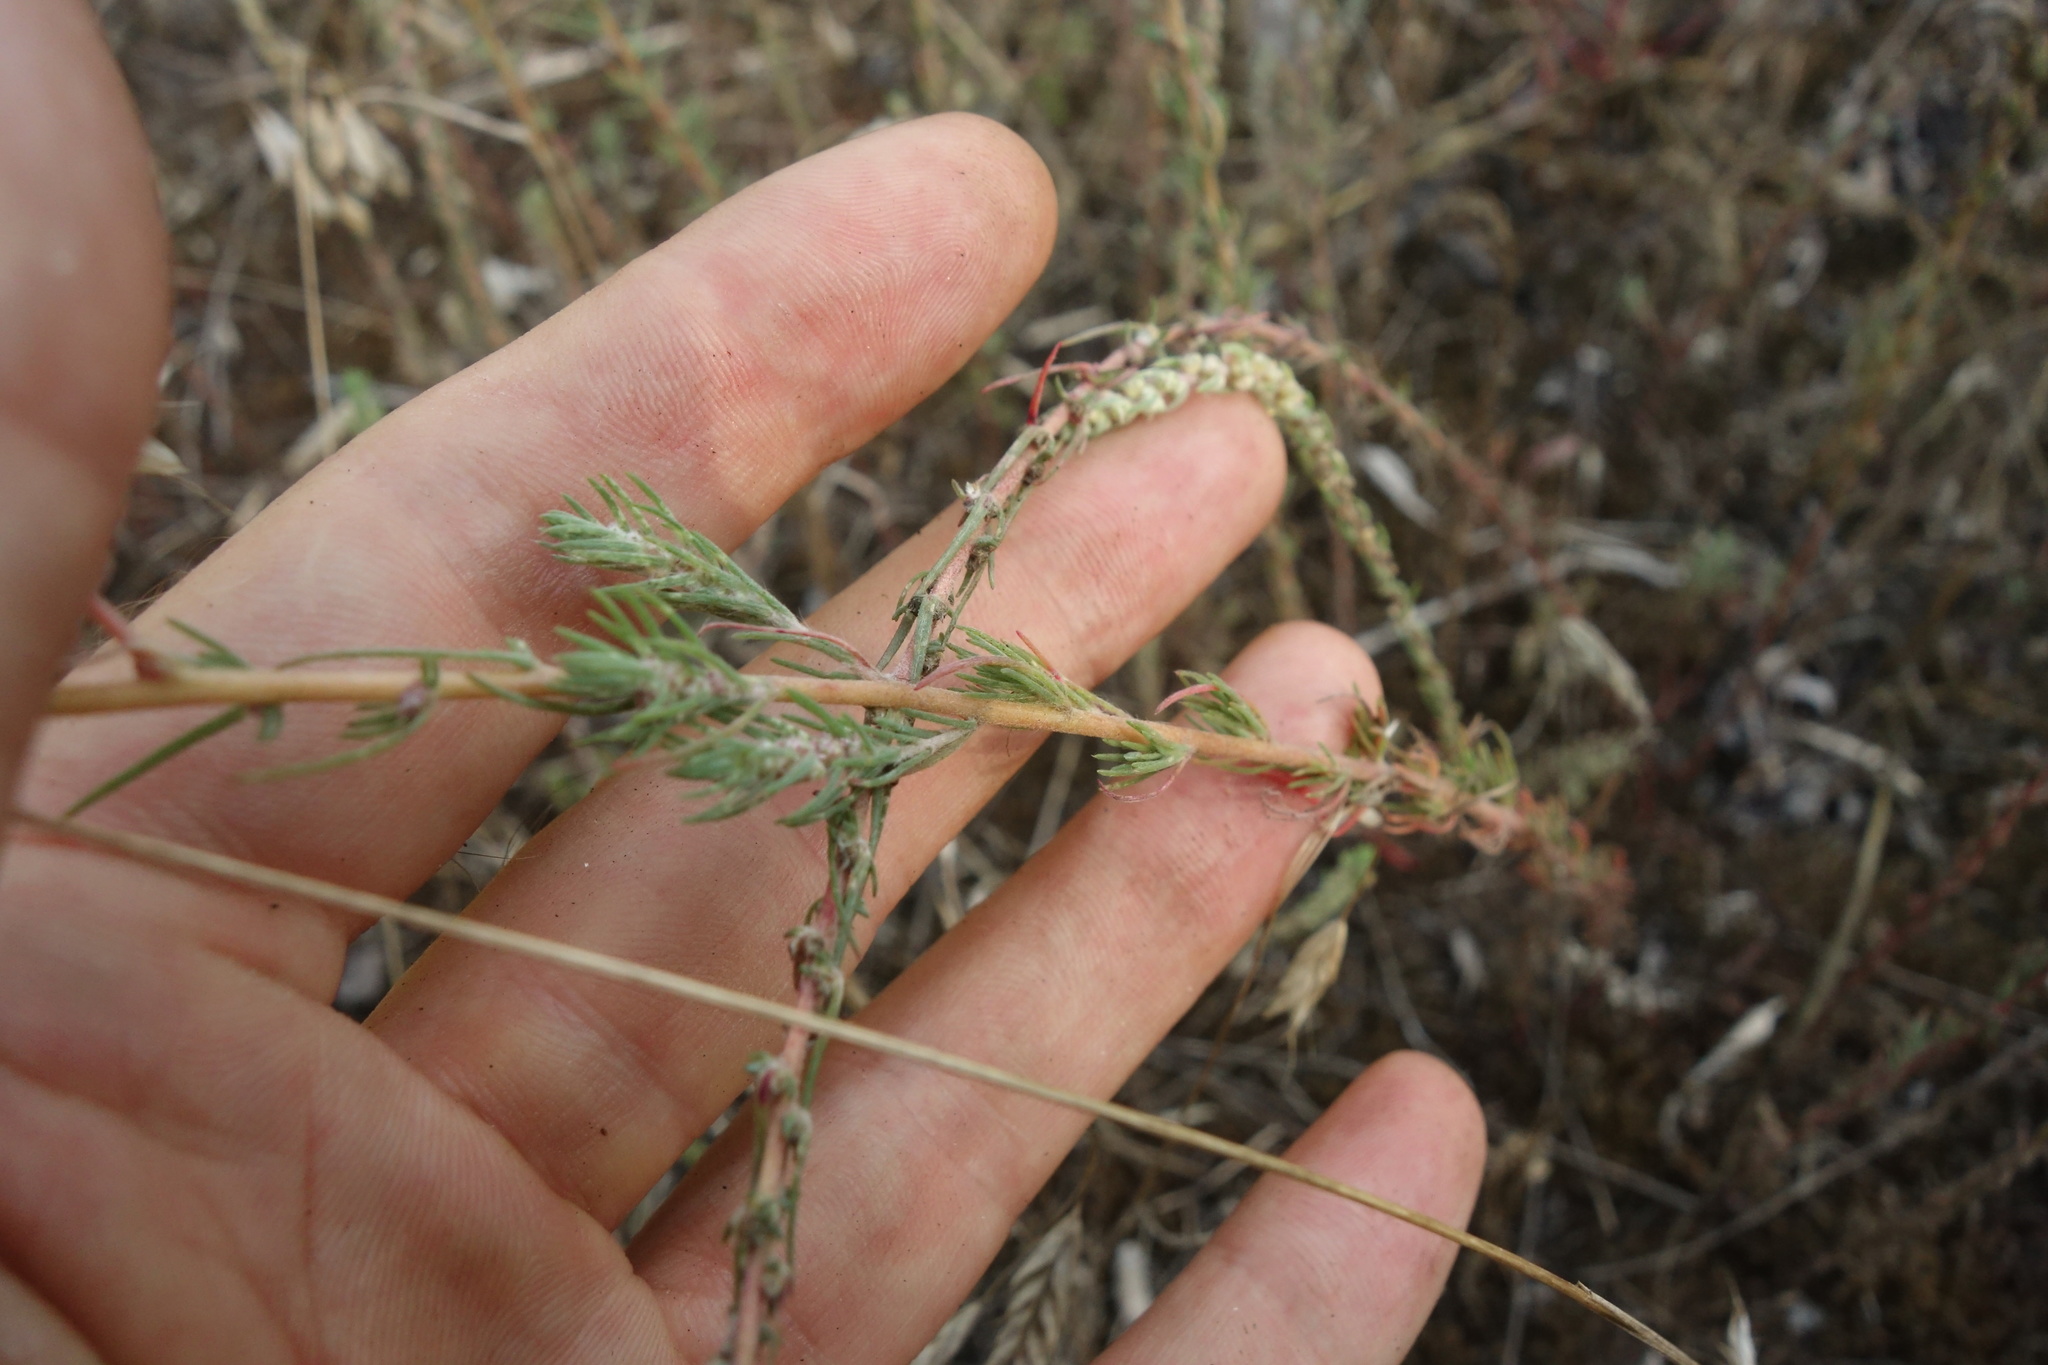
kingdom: Plantae
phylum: Tracheophyta
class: Magnoliopsida
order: Caryophyllales
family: Amaranthaceae
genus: Bassia
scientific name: Bassia prostrata
